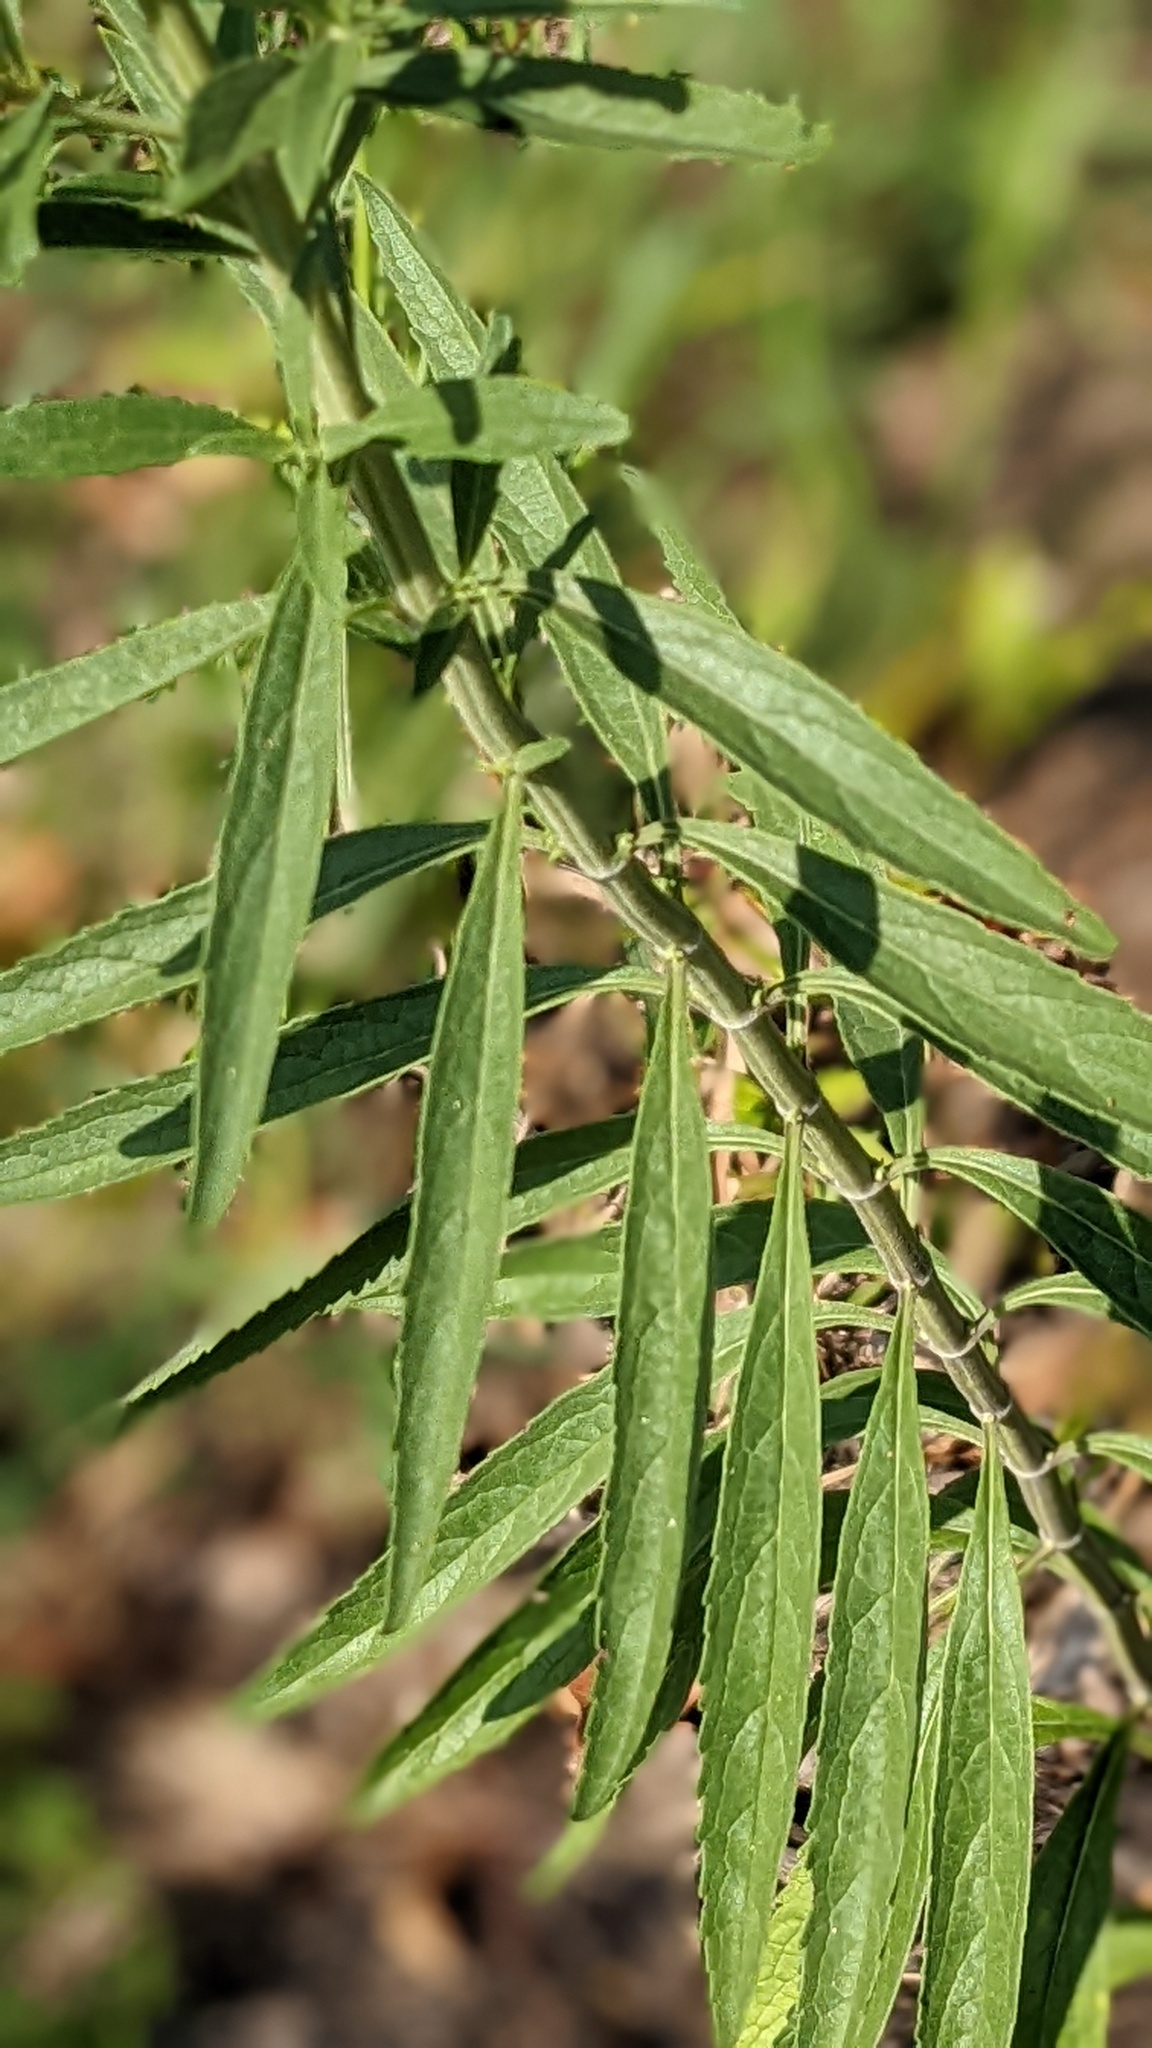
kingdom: Plantae
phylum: Tracheophyta
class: Magnoliopsida
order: Lamiales
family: Lamiaceae
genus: Salvia
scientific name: Salvia azurea
